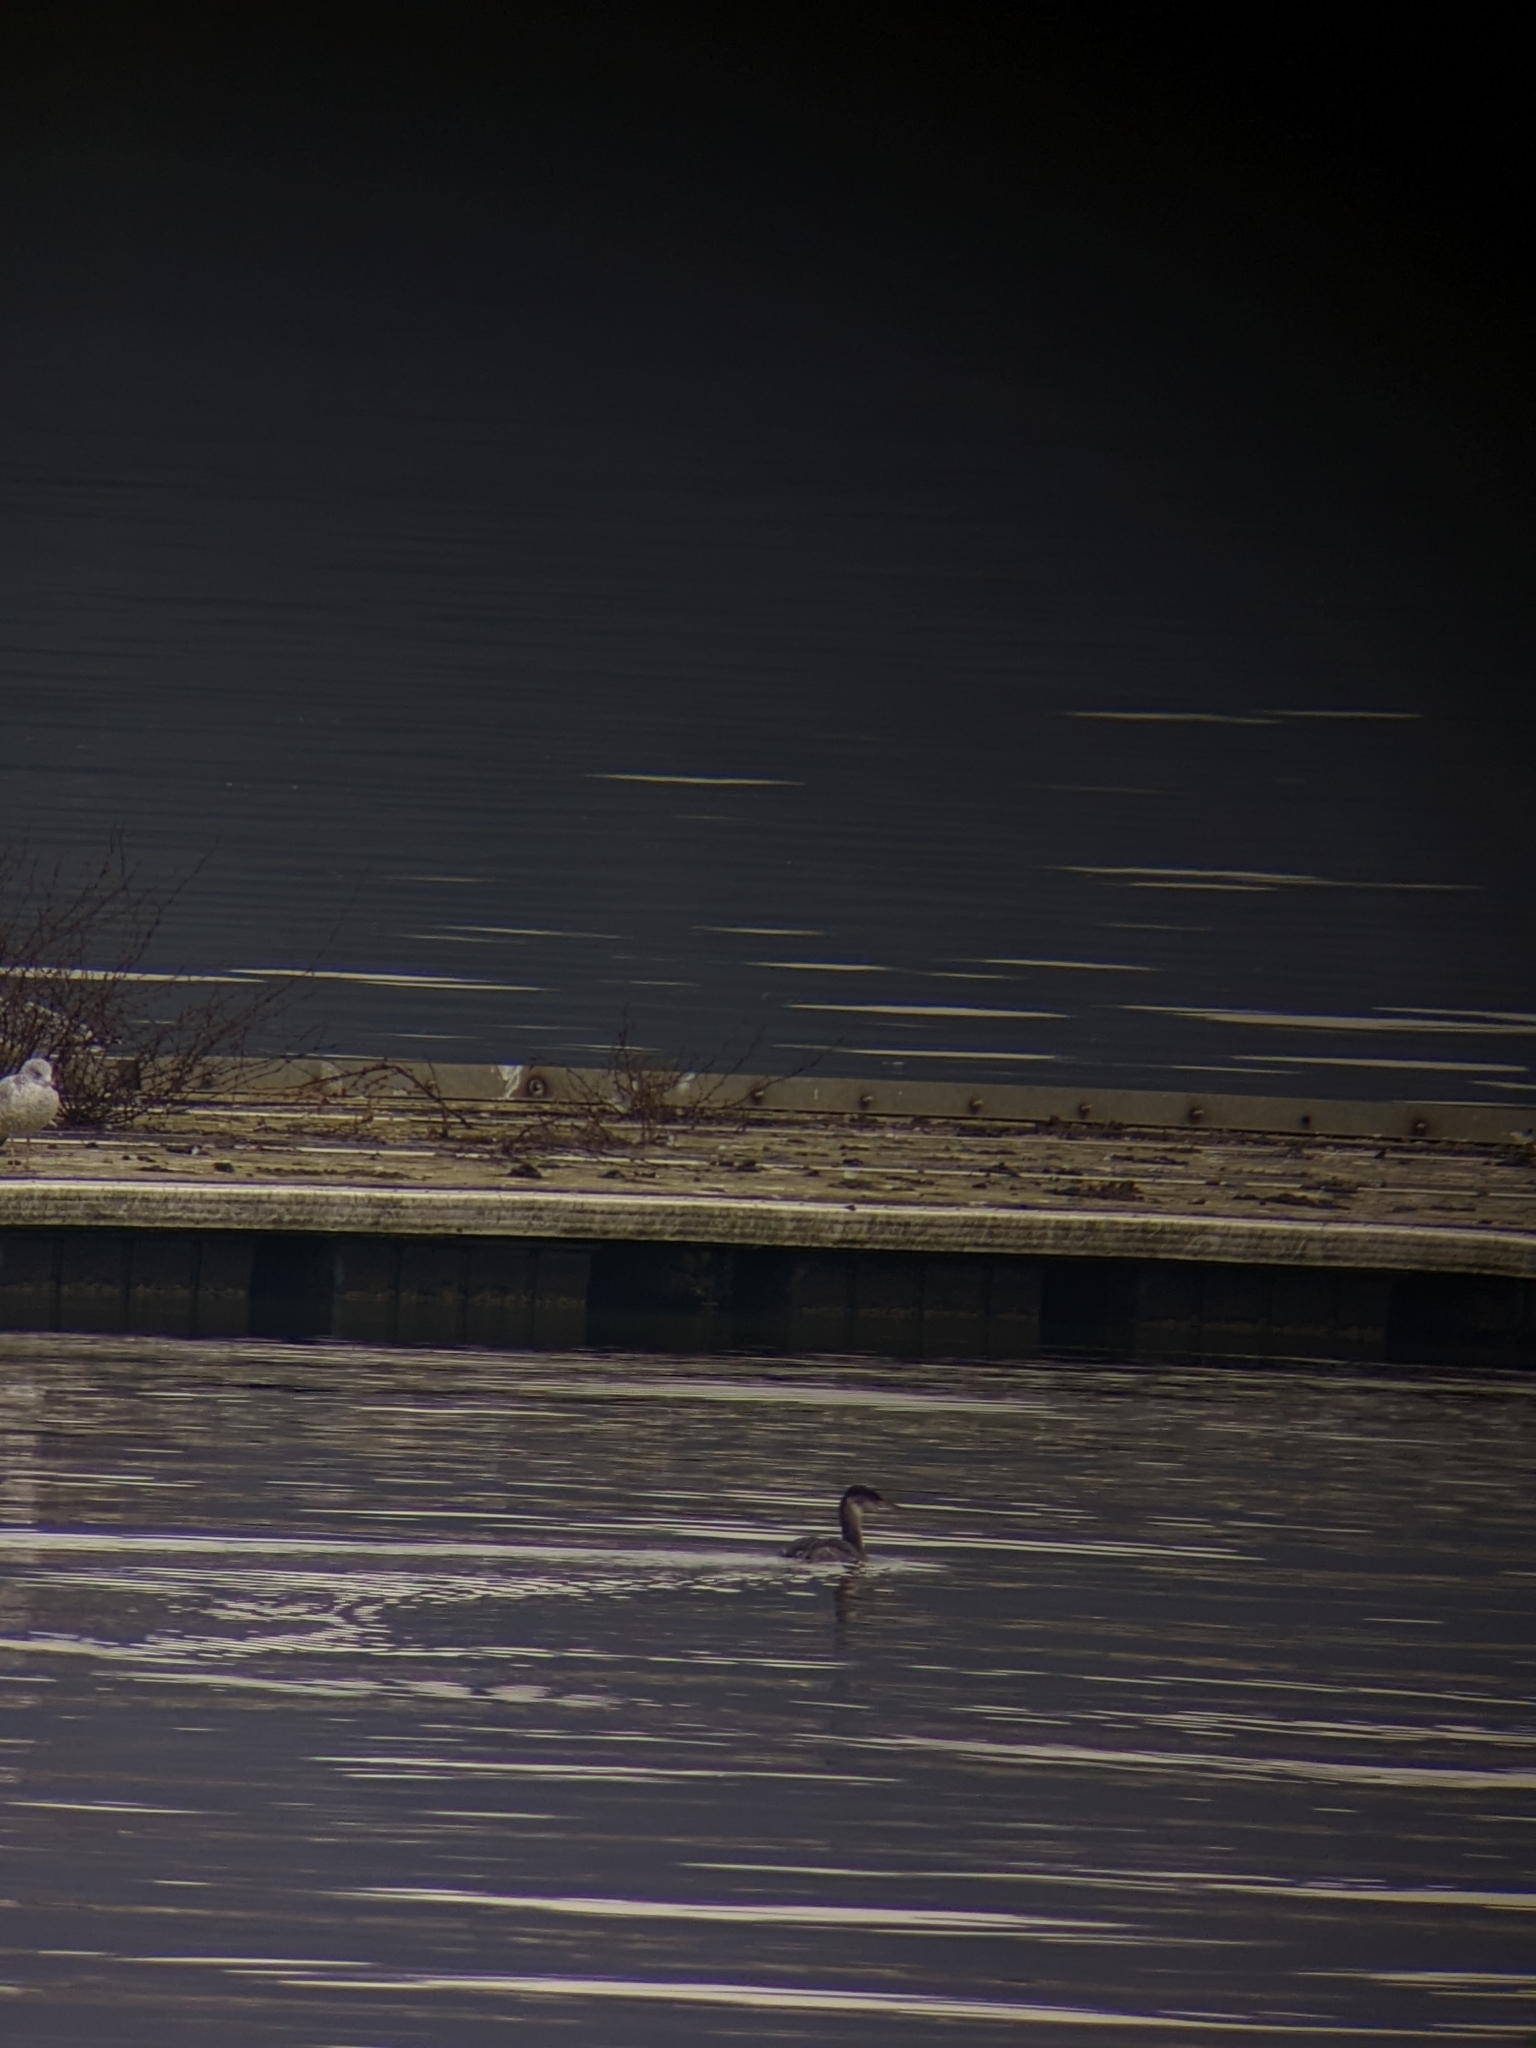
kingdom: Animalia
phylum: Chordata
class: Aves
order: Podicipediformes
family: Podicipedidae
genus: Podiceps
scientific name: Podiceps grisegena
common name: Red-necked grebe
